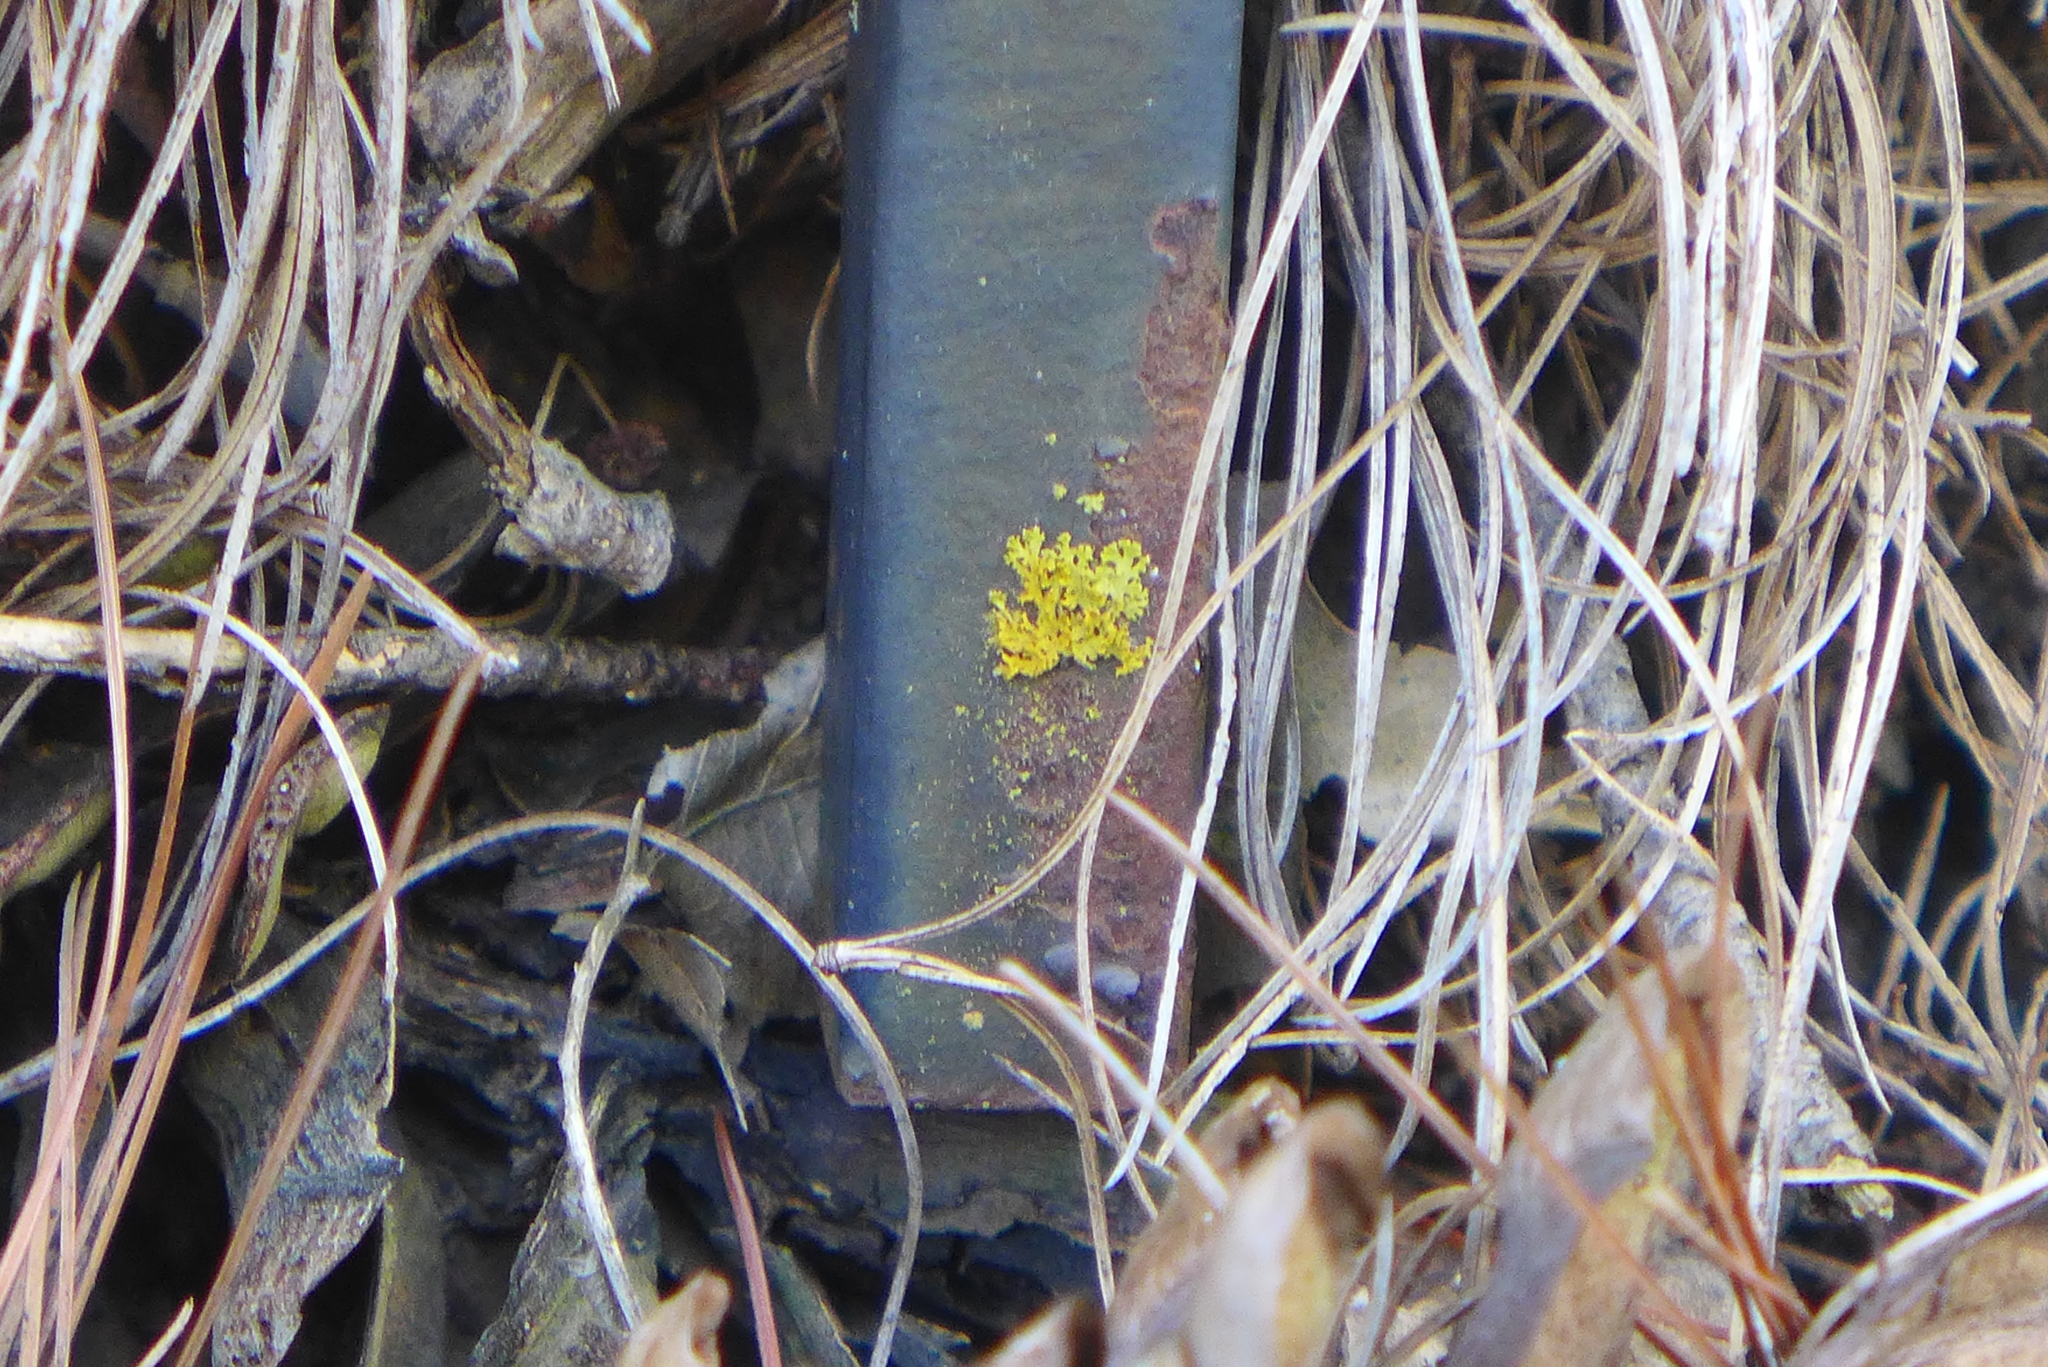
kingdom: Fungi
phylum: Ascomycota
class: Candelariomycetes
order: Candelariales
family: Candelariaceae
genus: Candelaria
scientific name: Candelaria concolor
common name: Candleflame lichen
